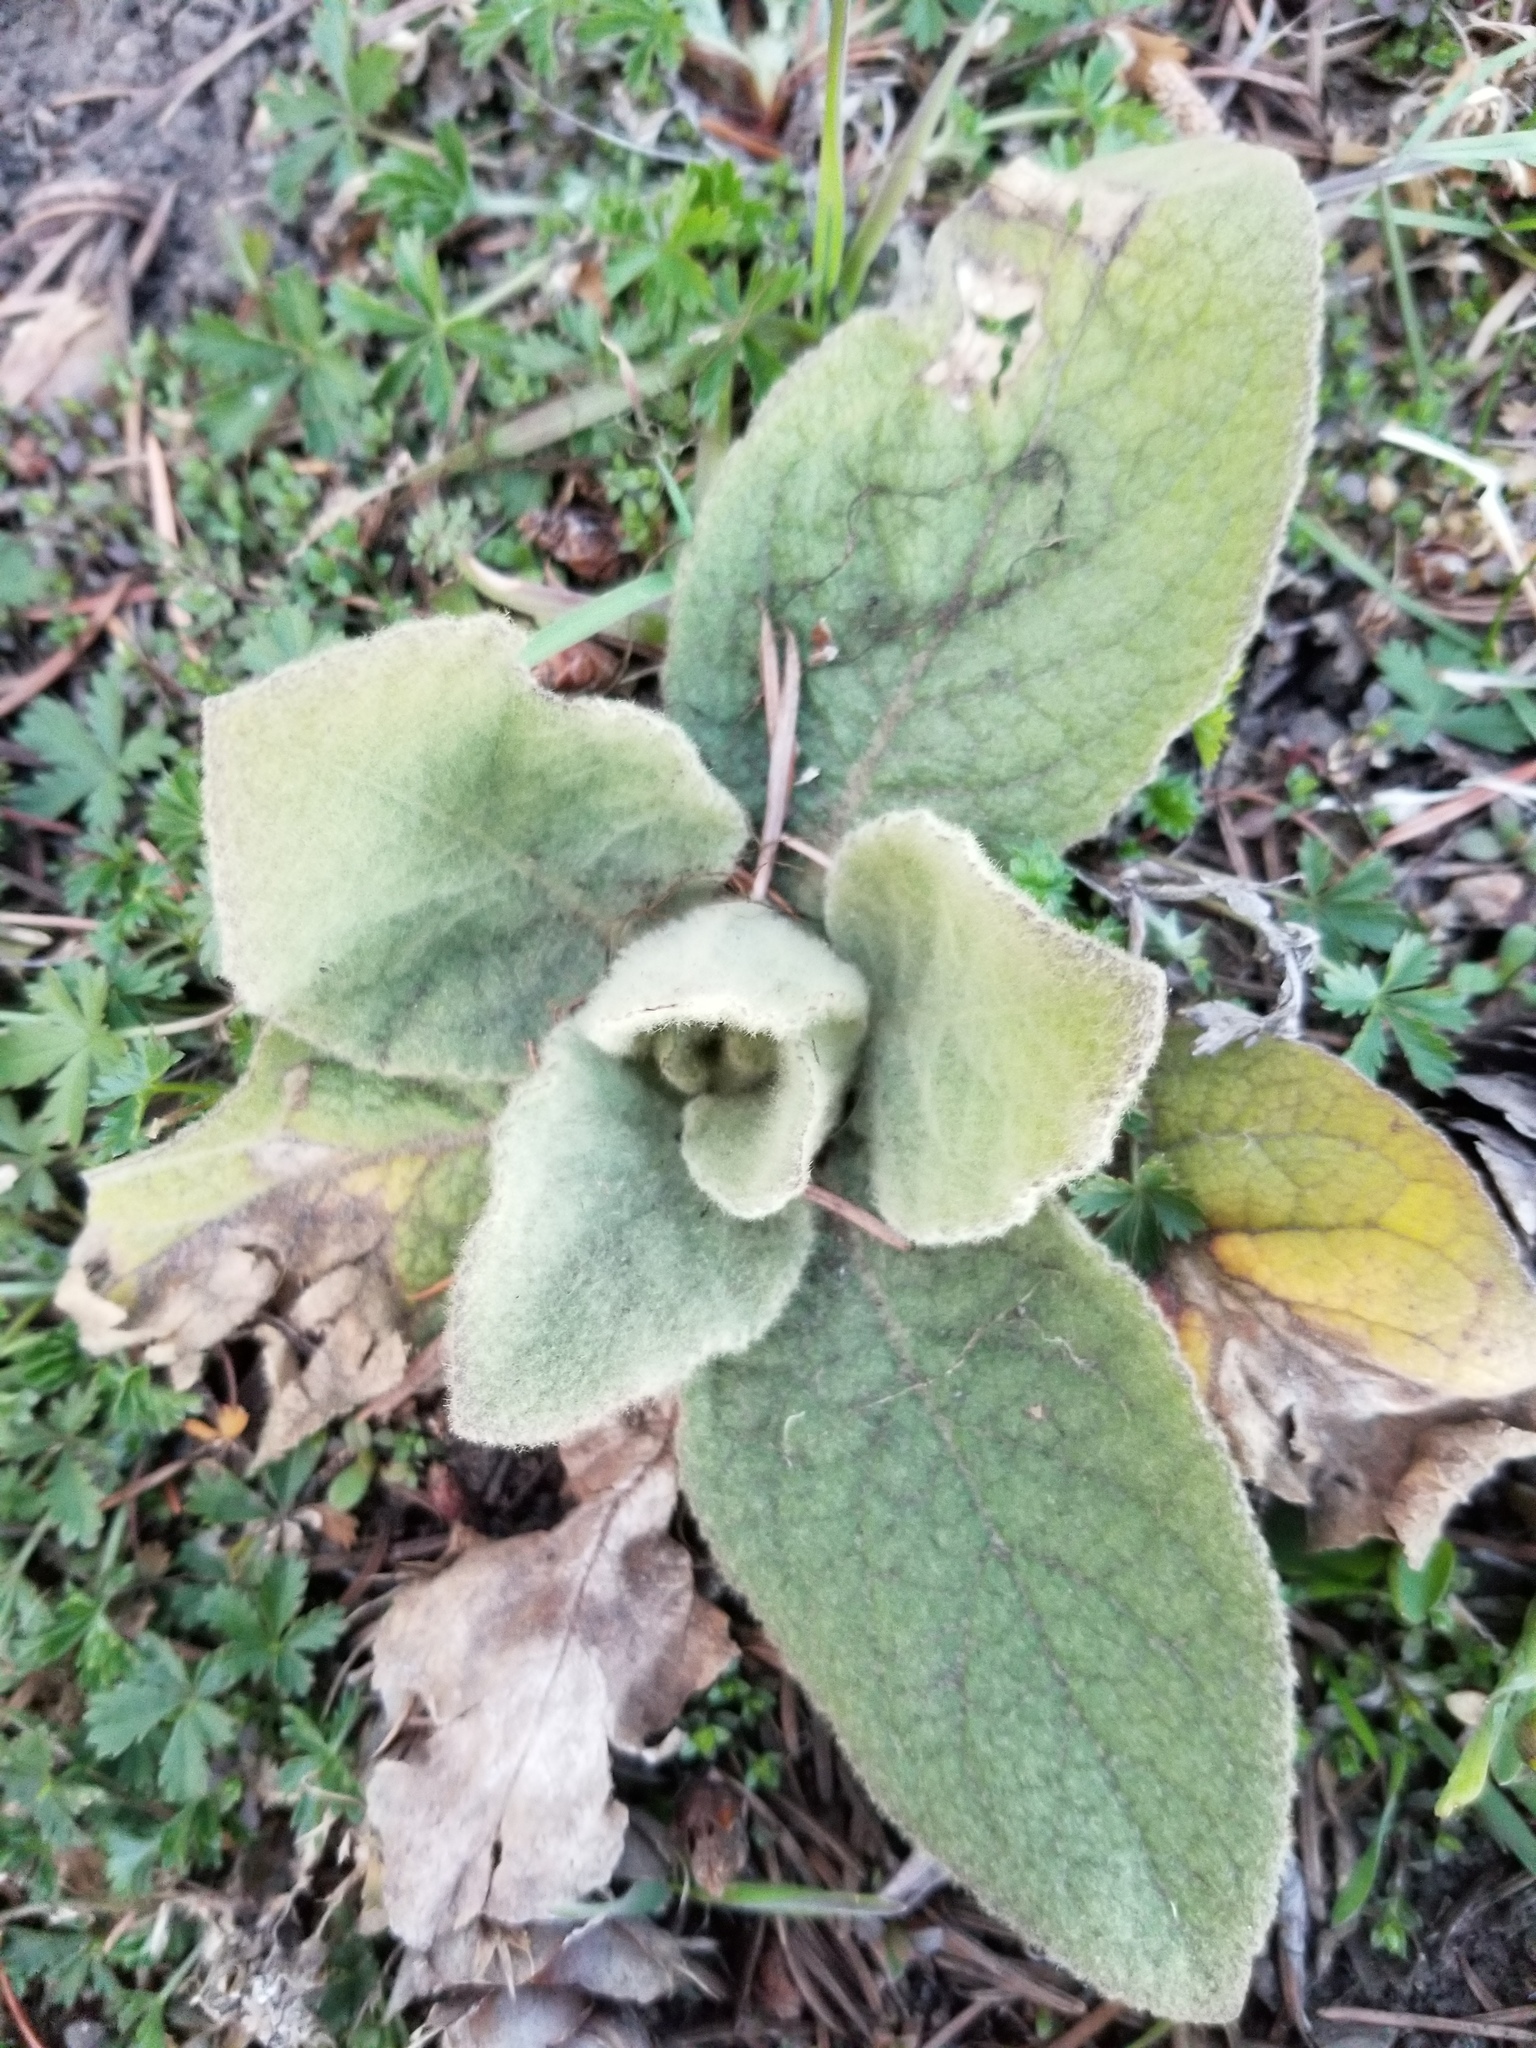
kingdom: Plantae
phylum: Tracheophyta
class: Magnoliopsida
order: Lamiales
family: Scrophulariaceae
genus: Verbascum
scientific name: Verbascum thapsus
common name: Common mullein
